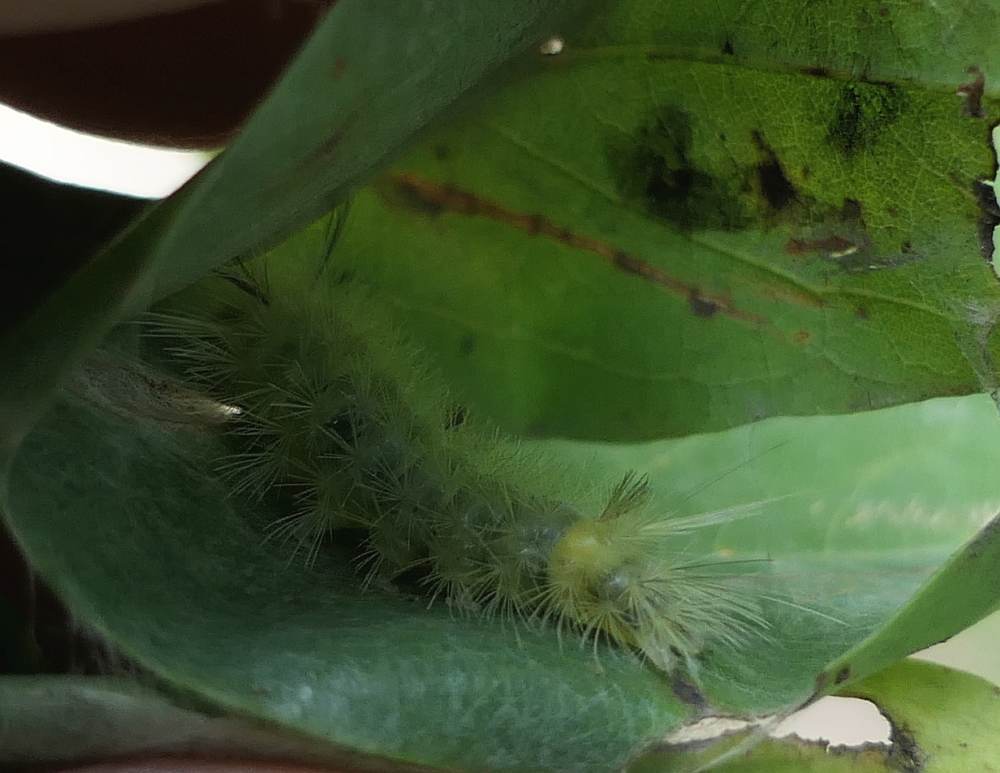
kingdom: Animalia
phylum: Arthropoda
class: Insecta
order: Lepidoptera
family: Erebidae
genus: Halysidota
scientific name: Halysidota tessellaris
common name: Banded tussock moth
